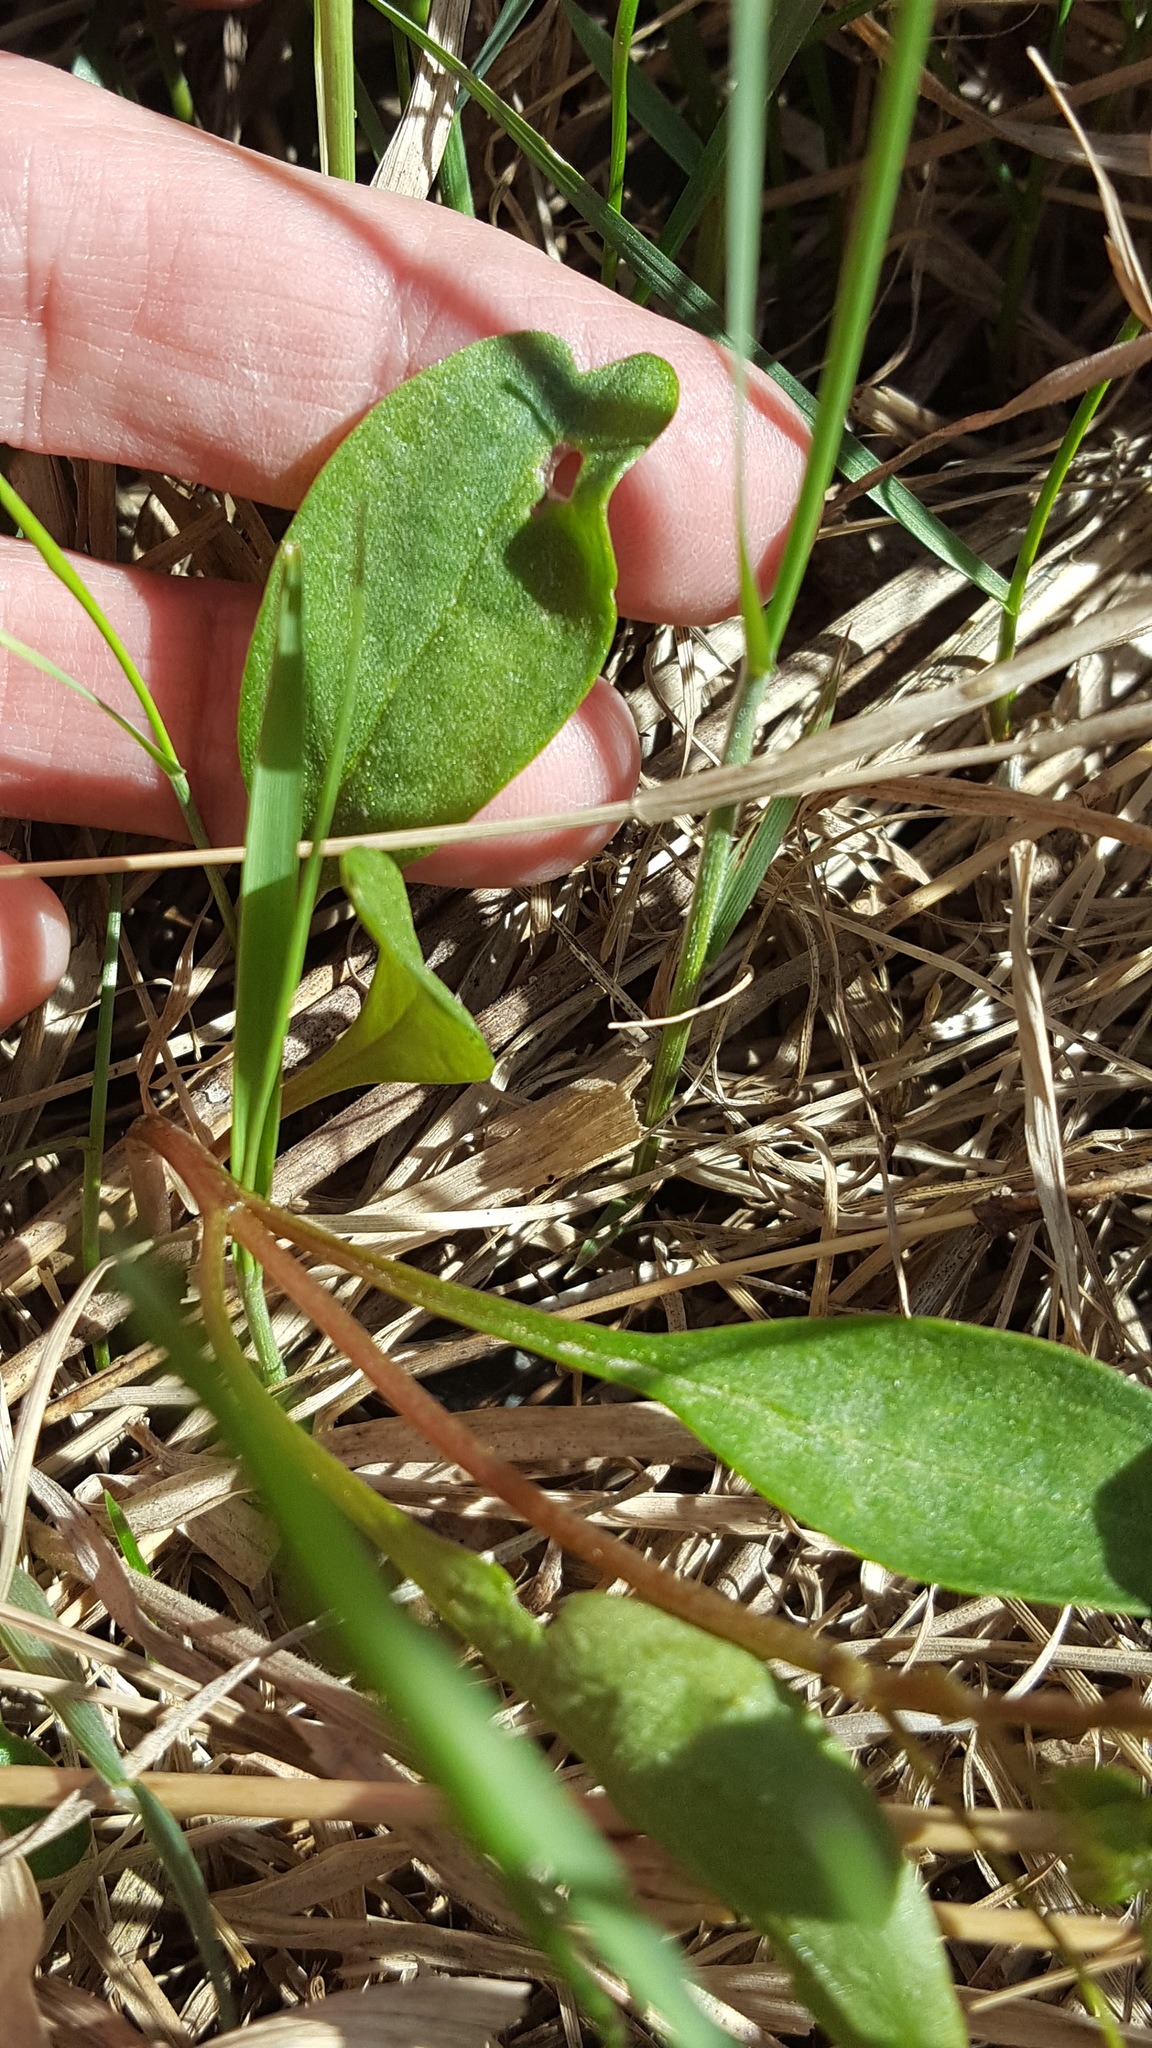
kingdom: Plantae
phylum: Tracheophyta
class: Magnoliopsida
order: Caryophyllales
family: Montiaceae
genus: Claytonia
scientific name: Claytonia caroliniana
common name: Carolina spring beauty
